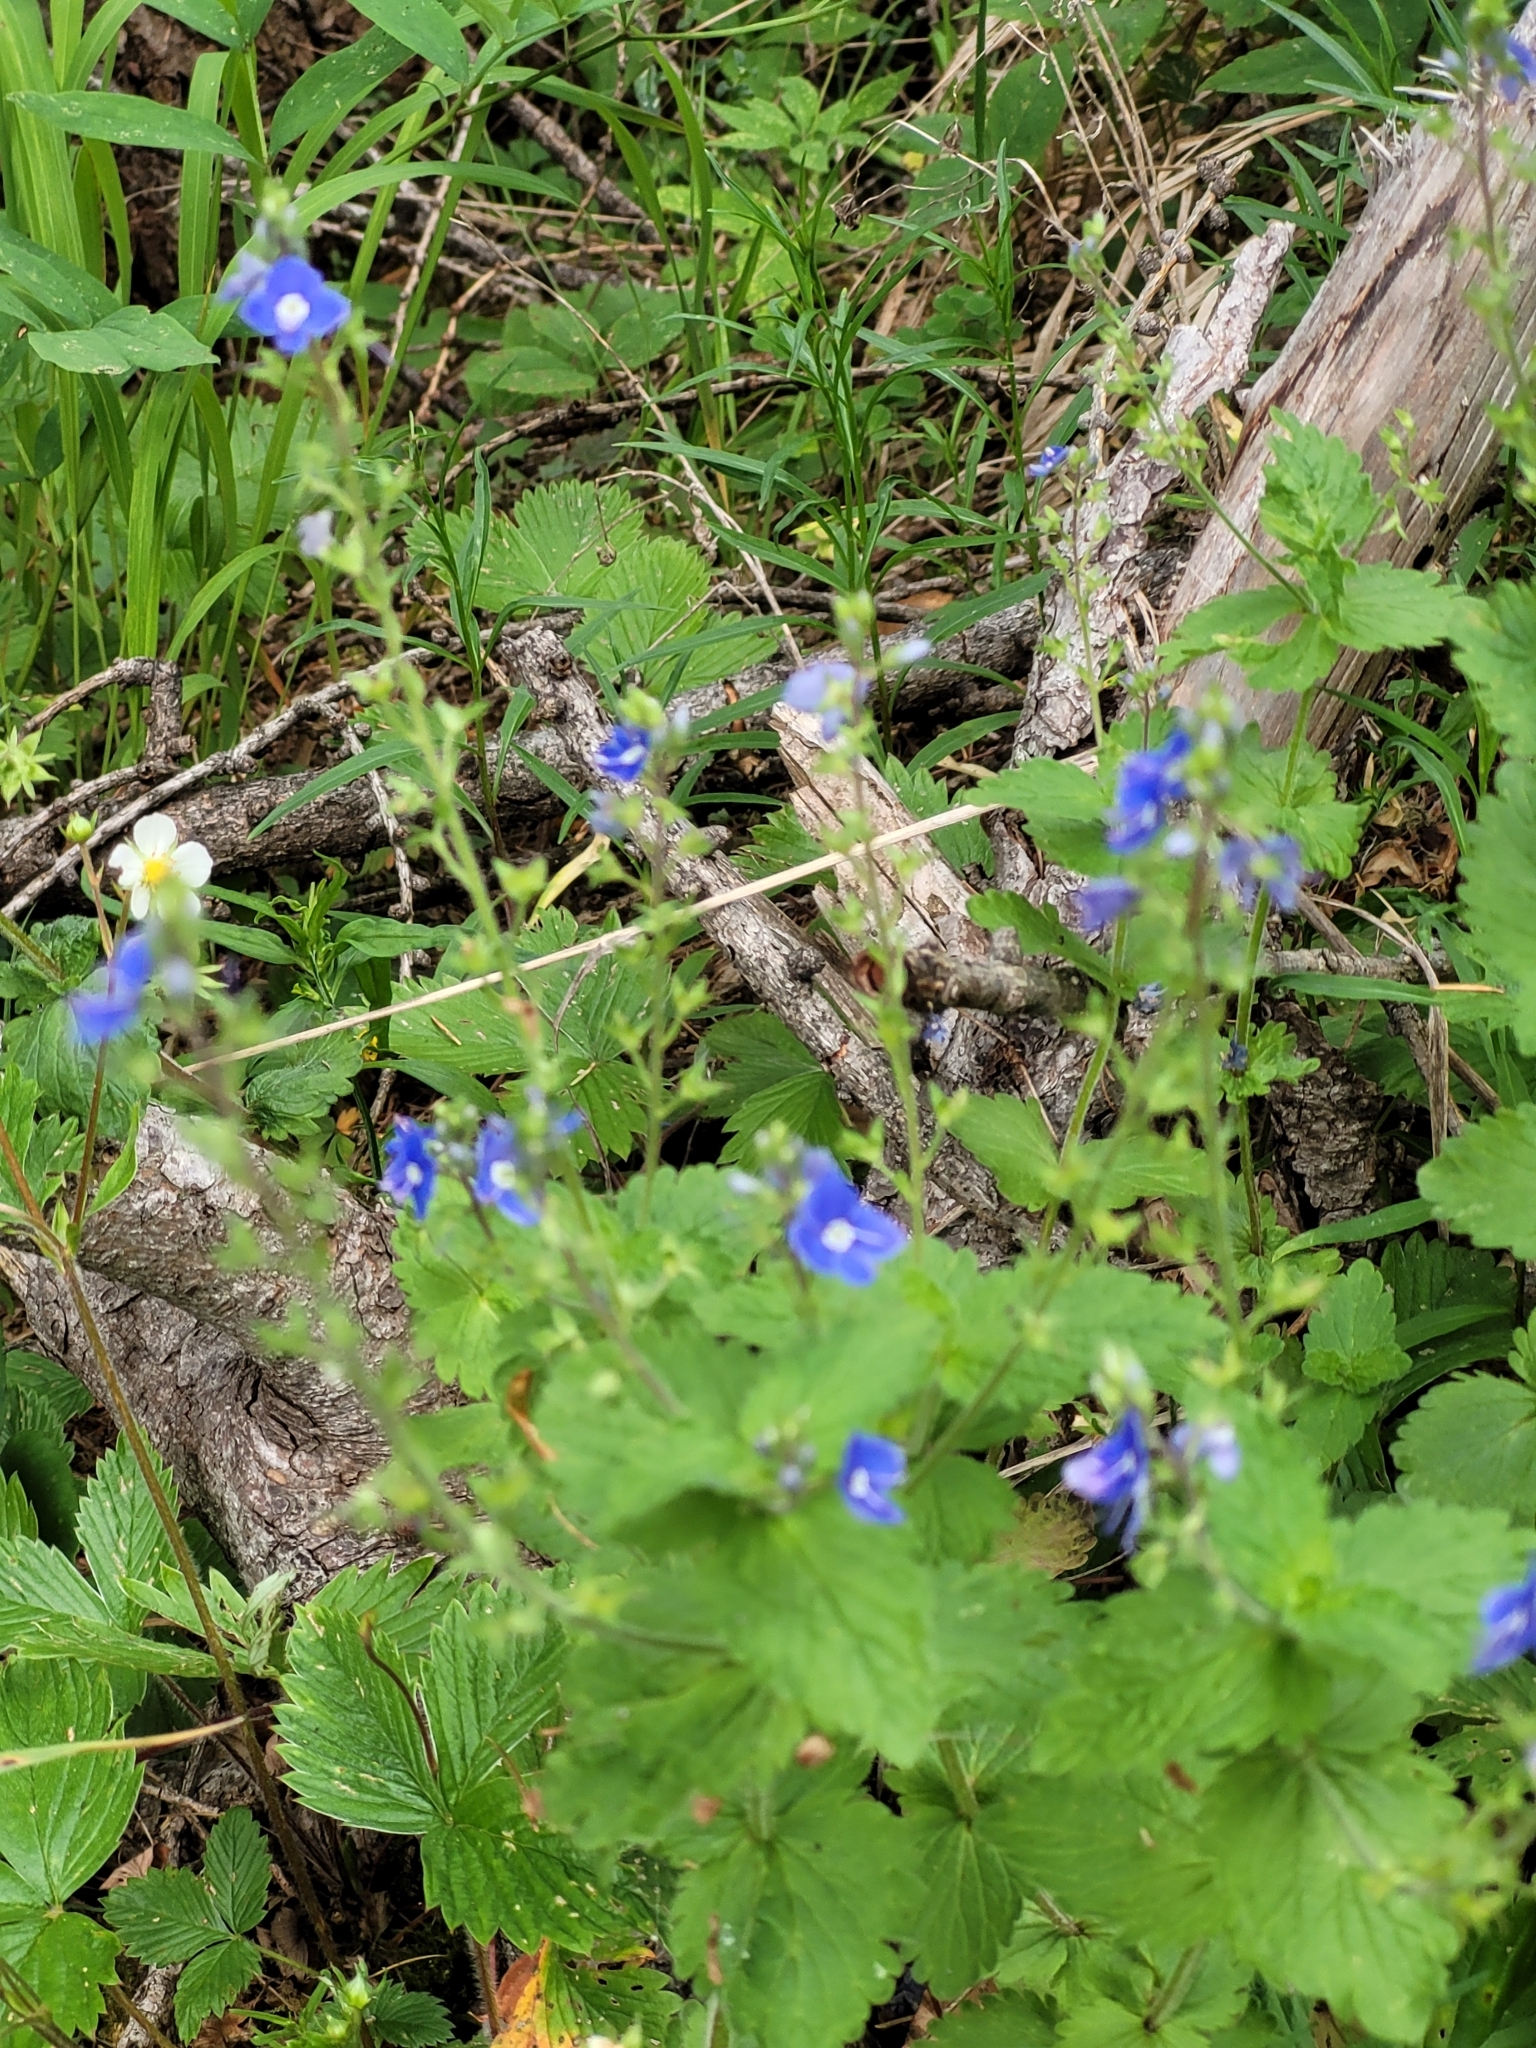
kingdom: Plantae
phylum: Tracheophyta
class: Magnoliopsida
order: Lamiales
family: Plantaginaceae
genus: Veronica
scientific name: Veronica chamaedrys
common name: Germander speedwell
